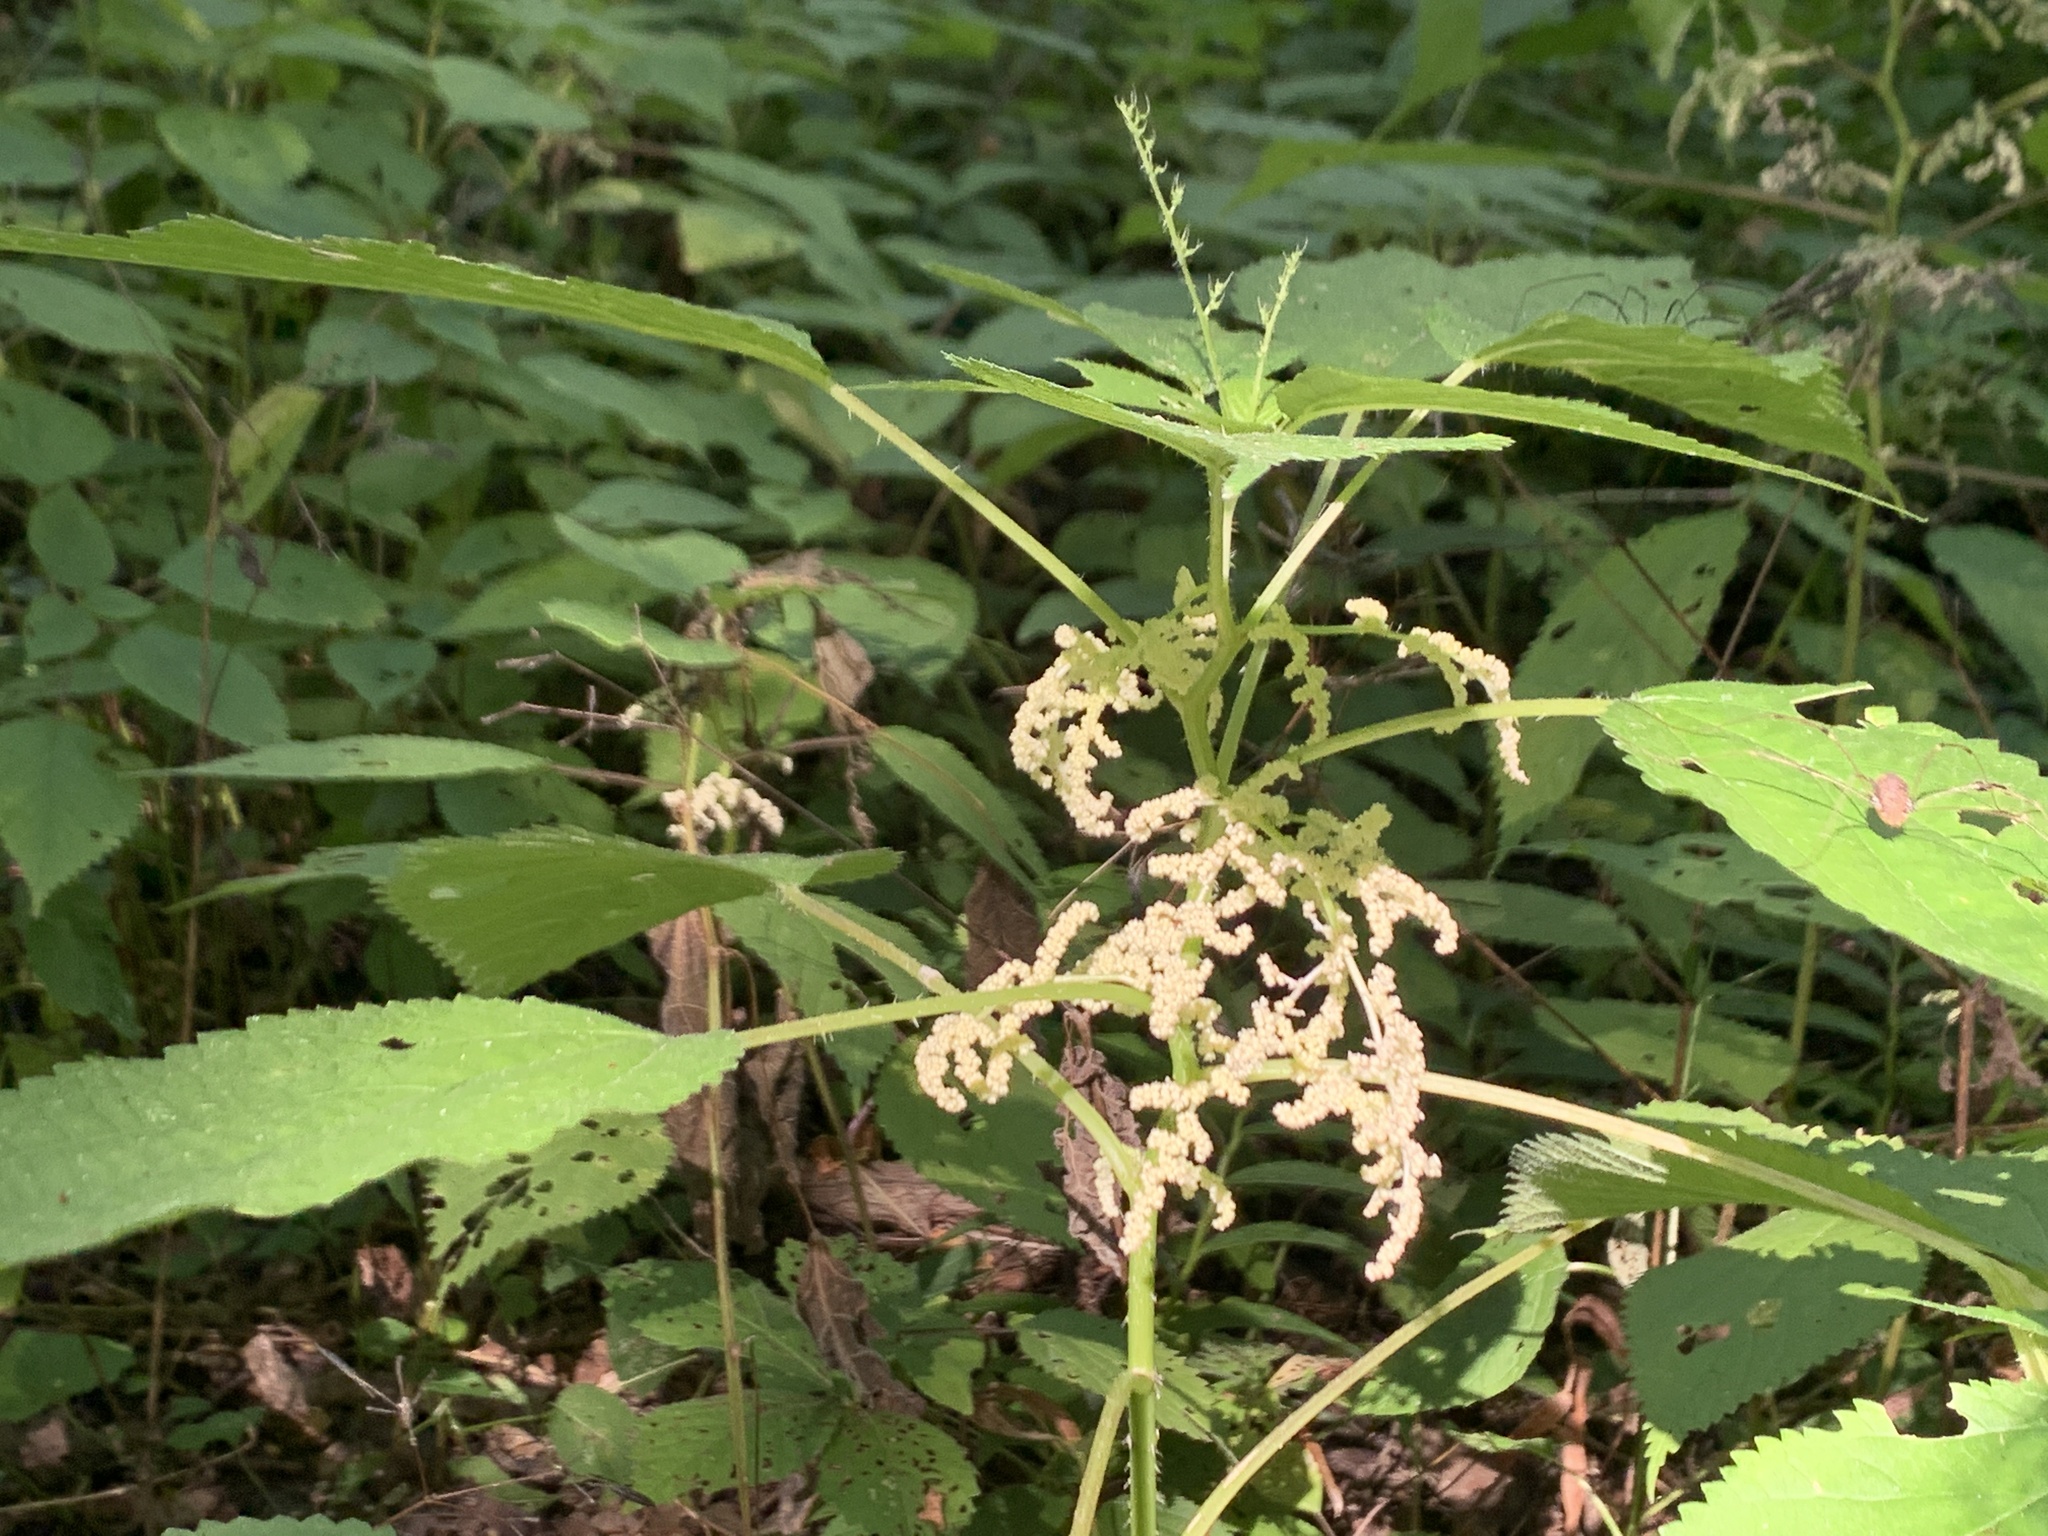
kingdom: Plantae
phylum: Tracheophyta
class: Magnoliopsida
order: Rosales
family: Urticaceae
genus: Laportea
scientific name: Laportea canadensis
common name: Canada nettle
